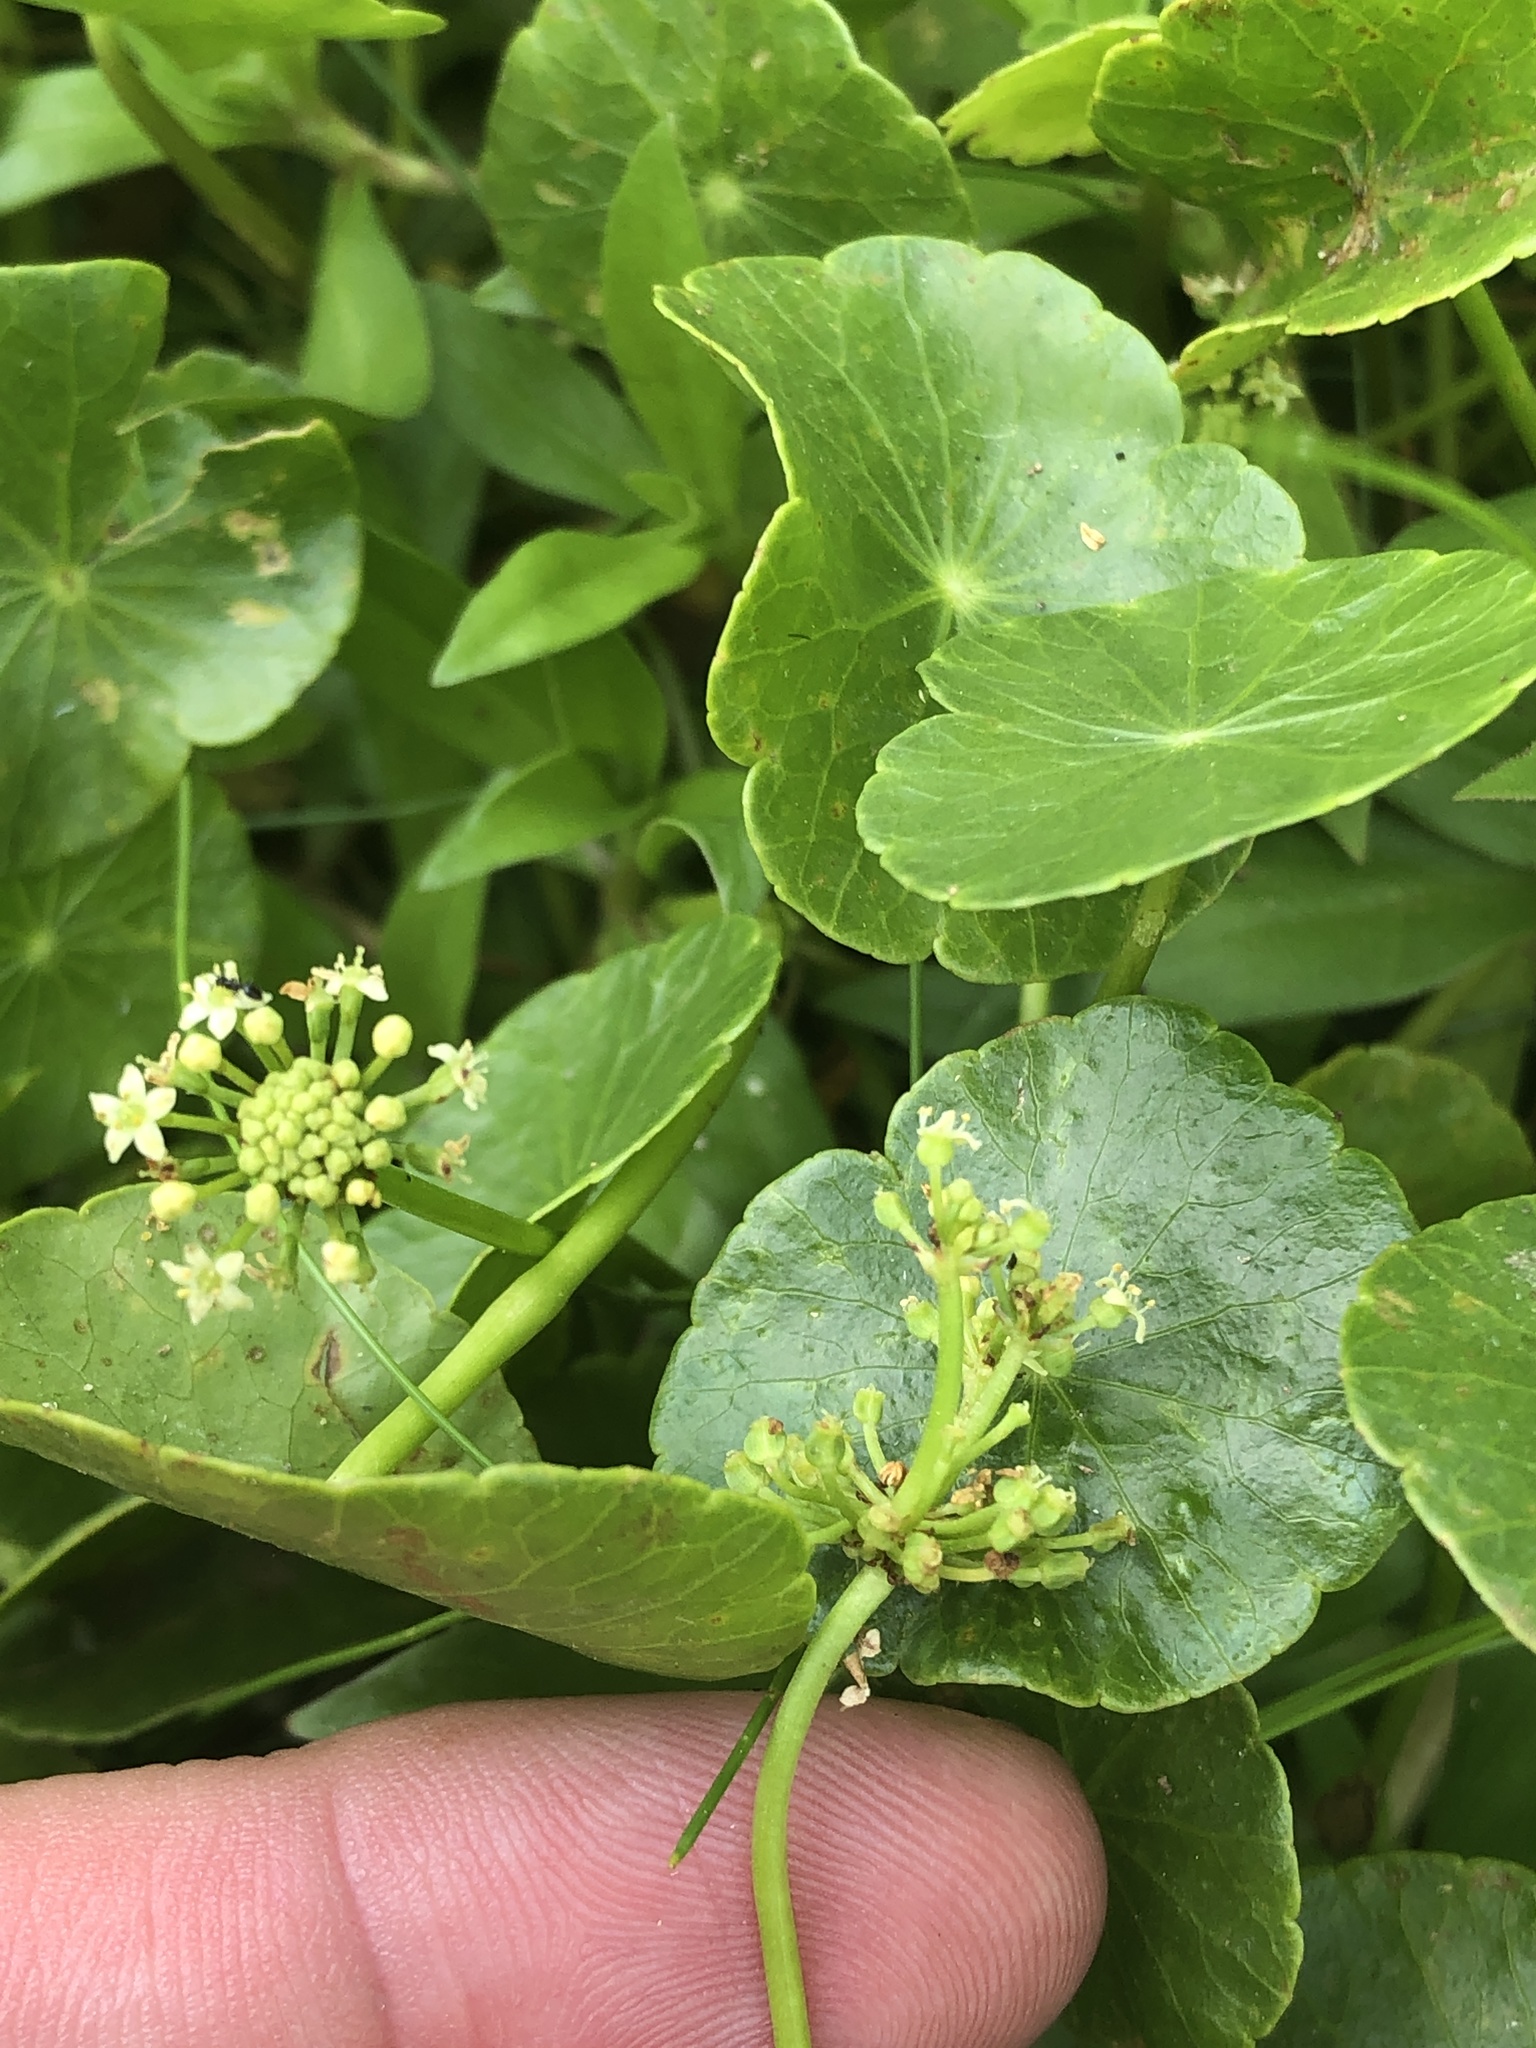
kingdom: Plantae
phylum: Tracheophyta
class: Magnoliopsida
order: Apiales
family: Araliaceae
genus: Hydrocotyle
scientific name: Hydrocotyle umbellata
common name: Water pennywort
